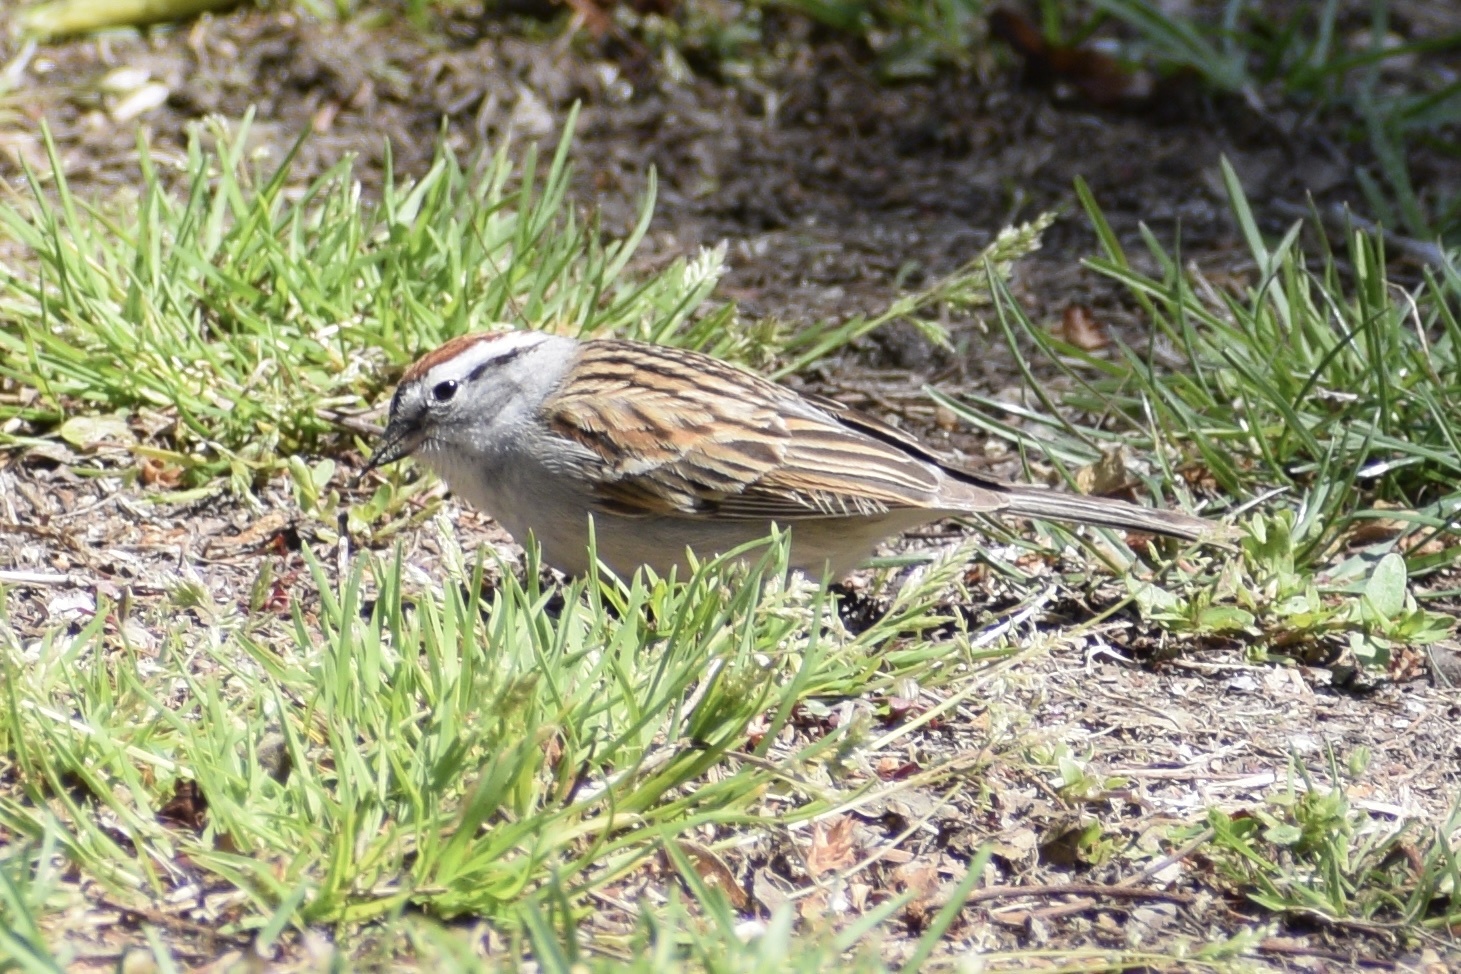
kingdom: Animalia
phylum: Chordata
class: Aves
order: Passeriformes
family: Passerellidae
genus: Spizella
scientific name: Spizella passerina
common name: Chipping sparrow
